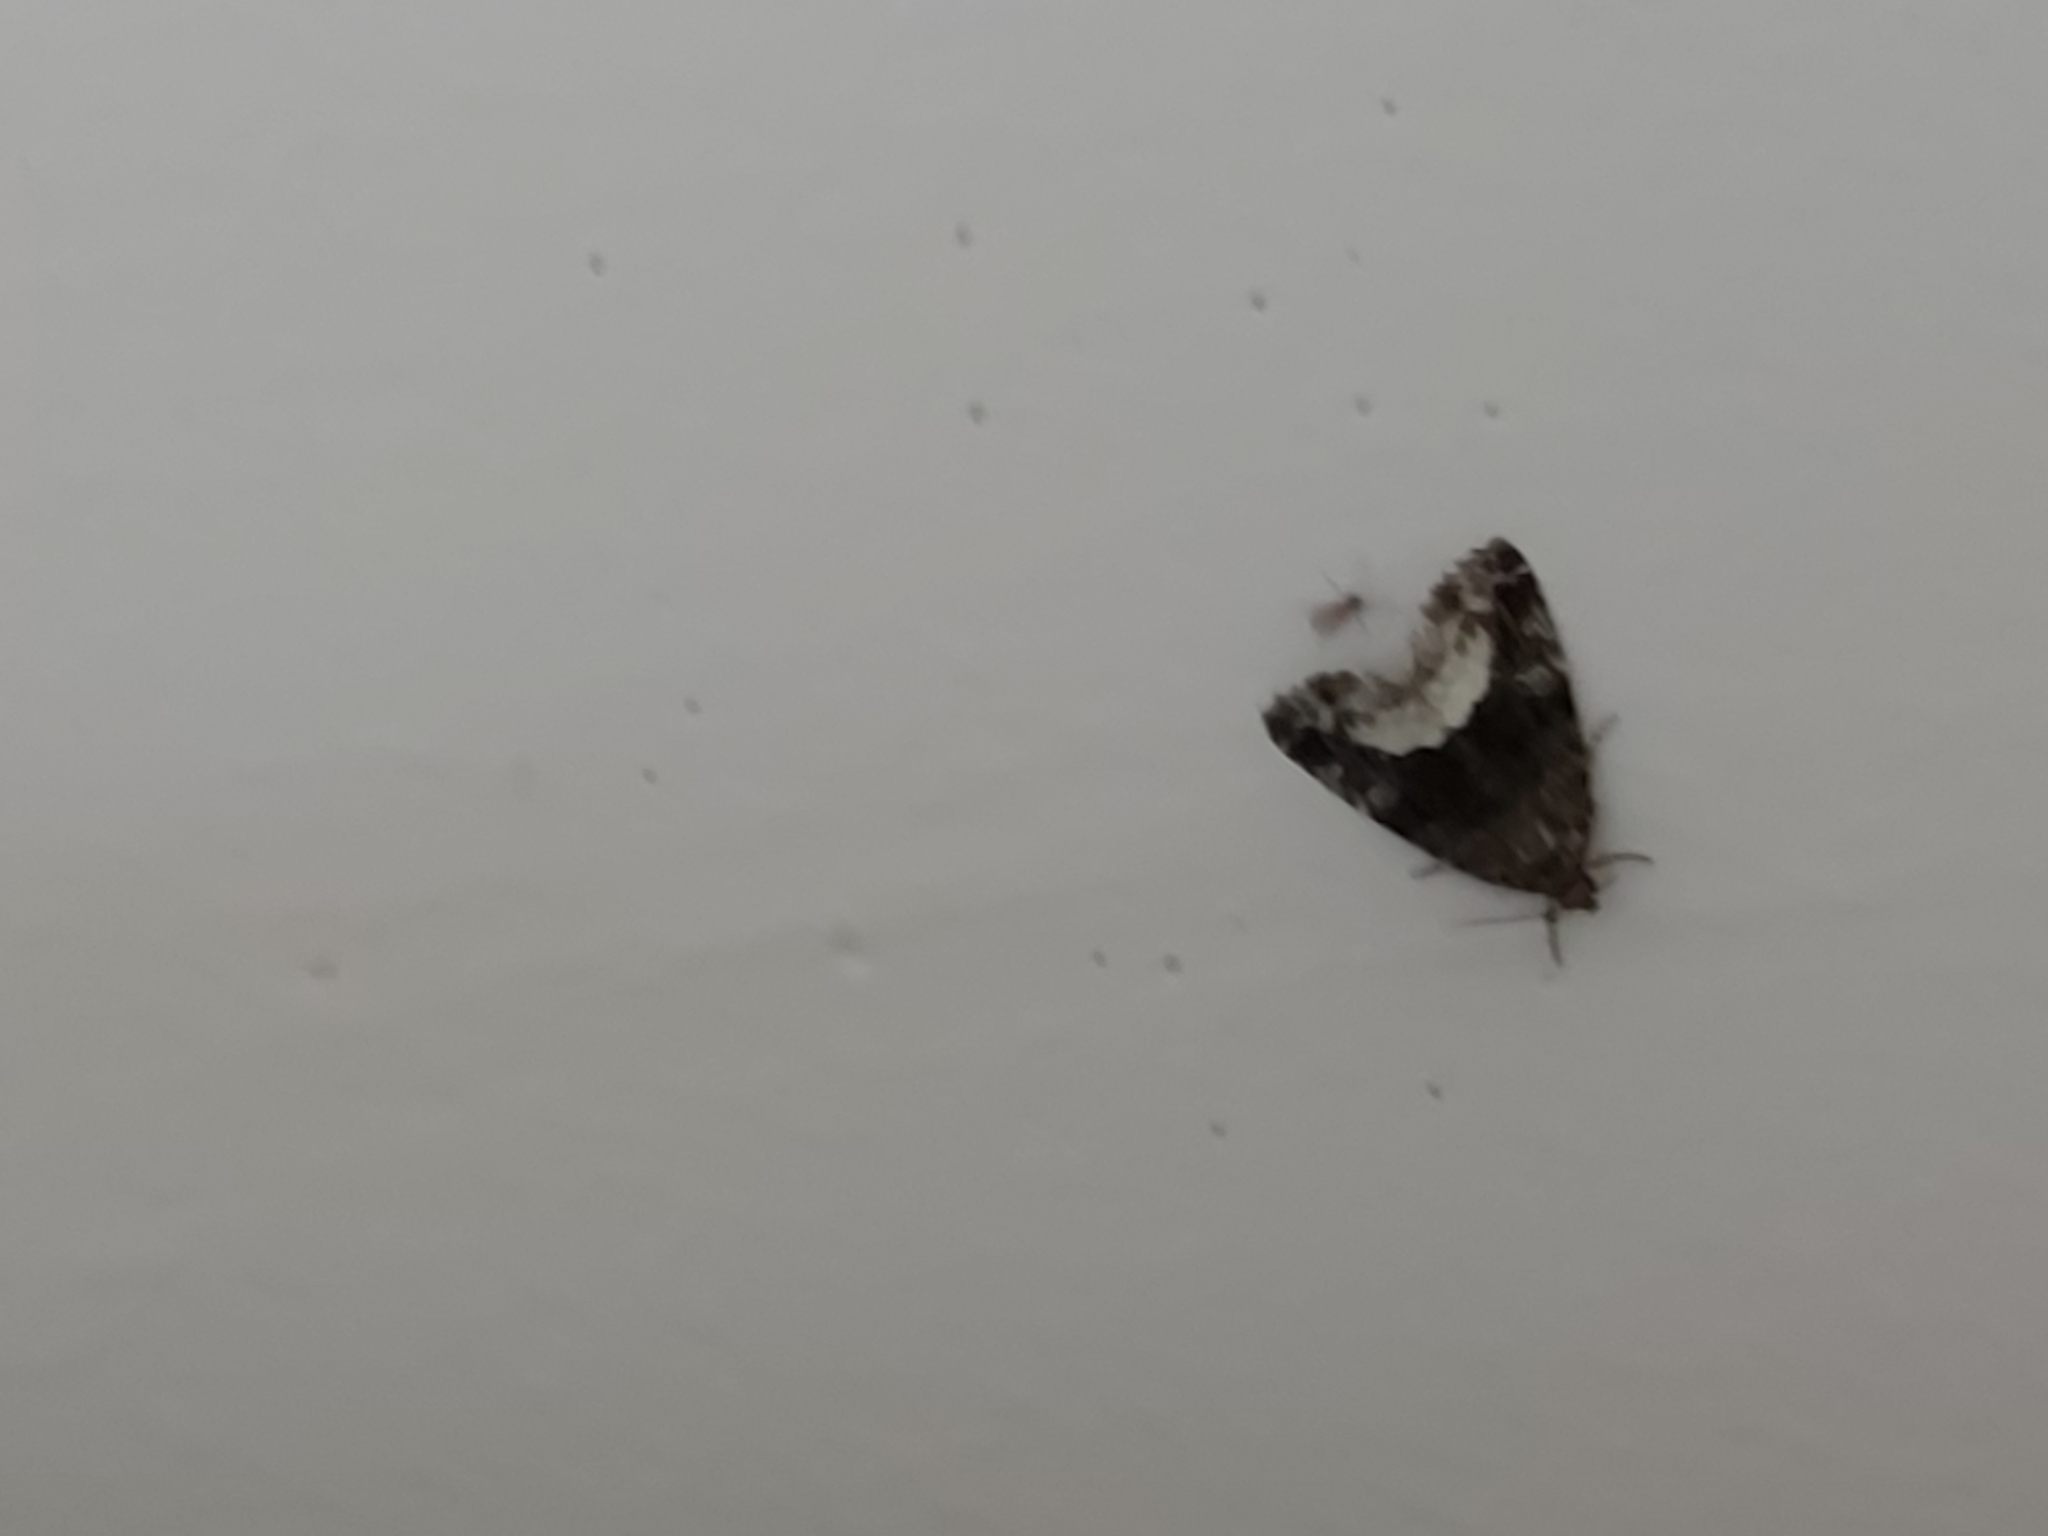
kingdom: Animalia
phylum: Arthropoda
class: Insecta
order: Lepidoptera
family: Noctuidae
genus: Deltote
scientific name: Deltote pygarga
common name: Marbled white spot
